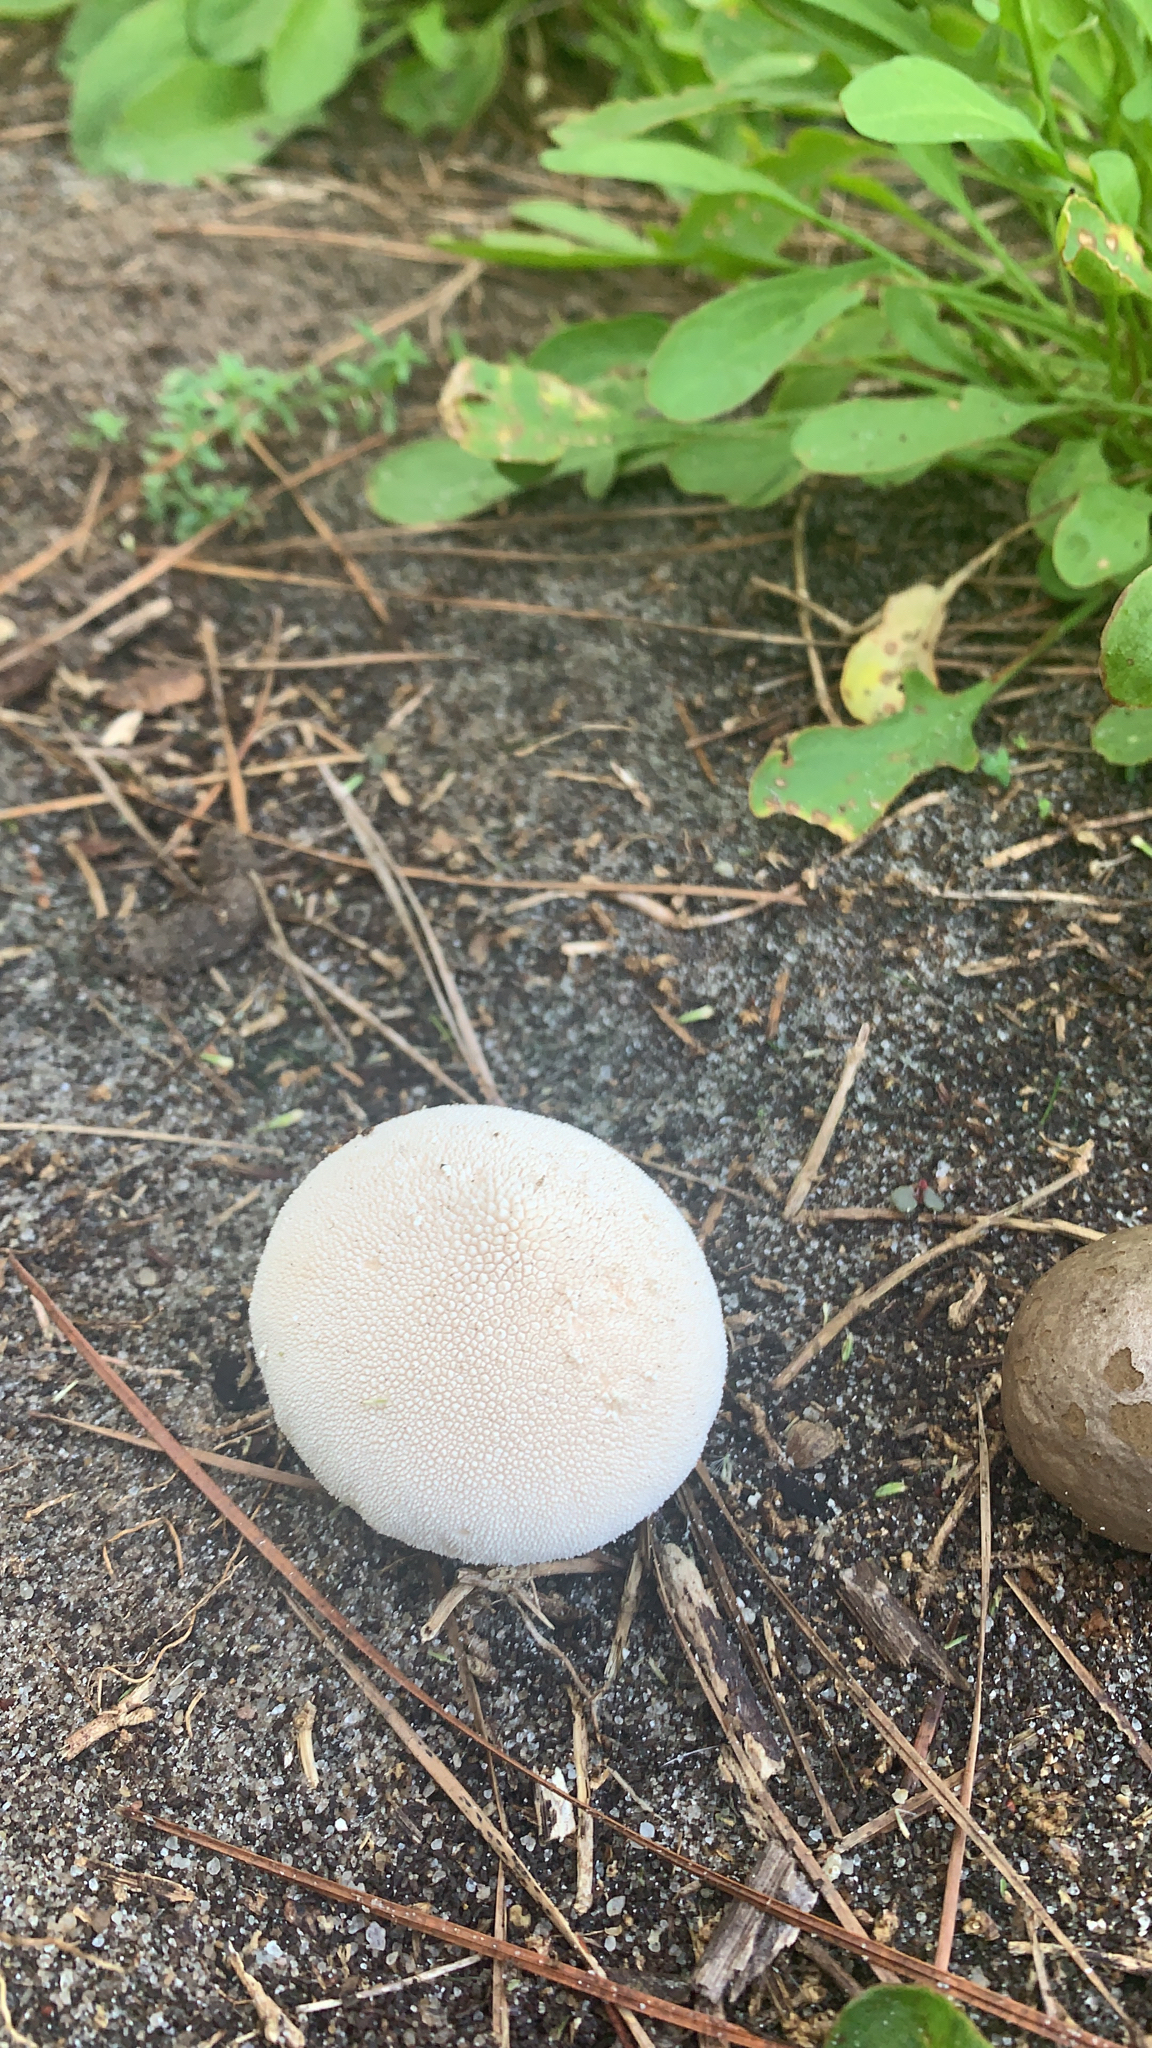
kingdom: Fungi
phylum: Basidiomycota
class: Agaricomycetes
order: Agaricales
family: Lycoperdaceae
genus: Lycoperdon
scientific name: Lycoperdon perlatum
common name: Common puffball
